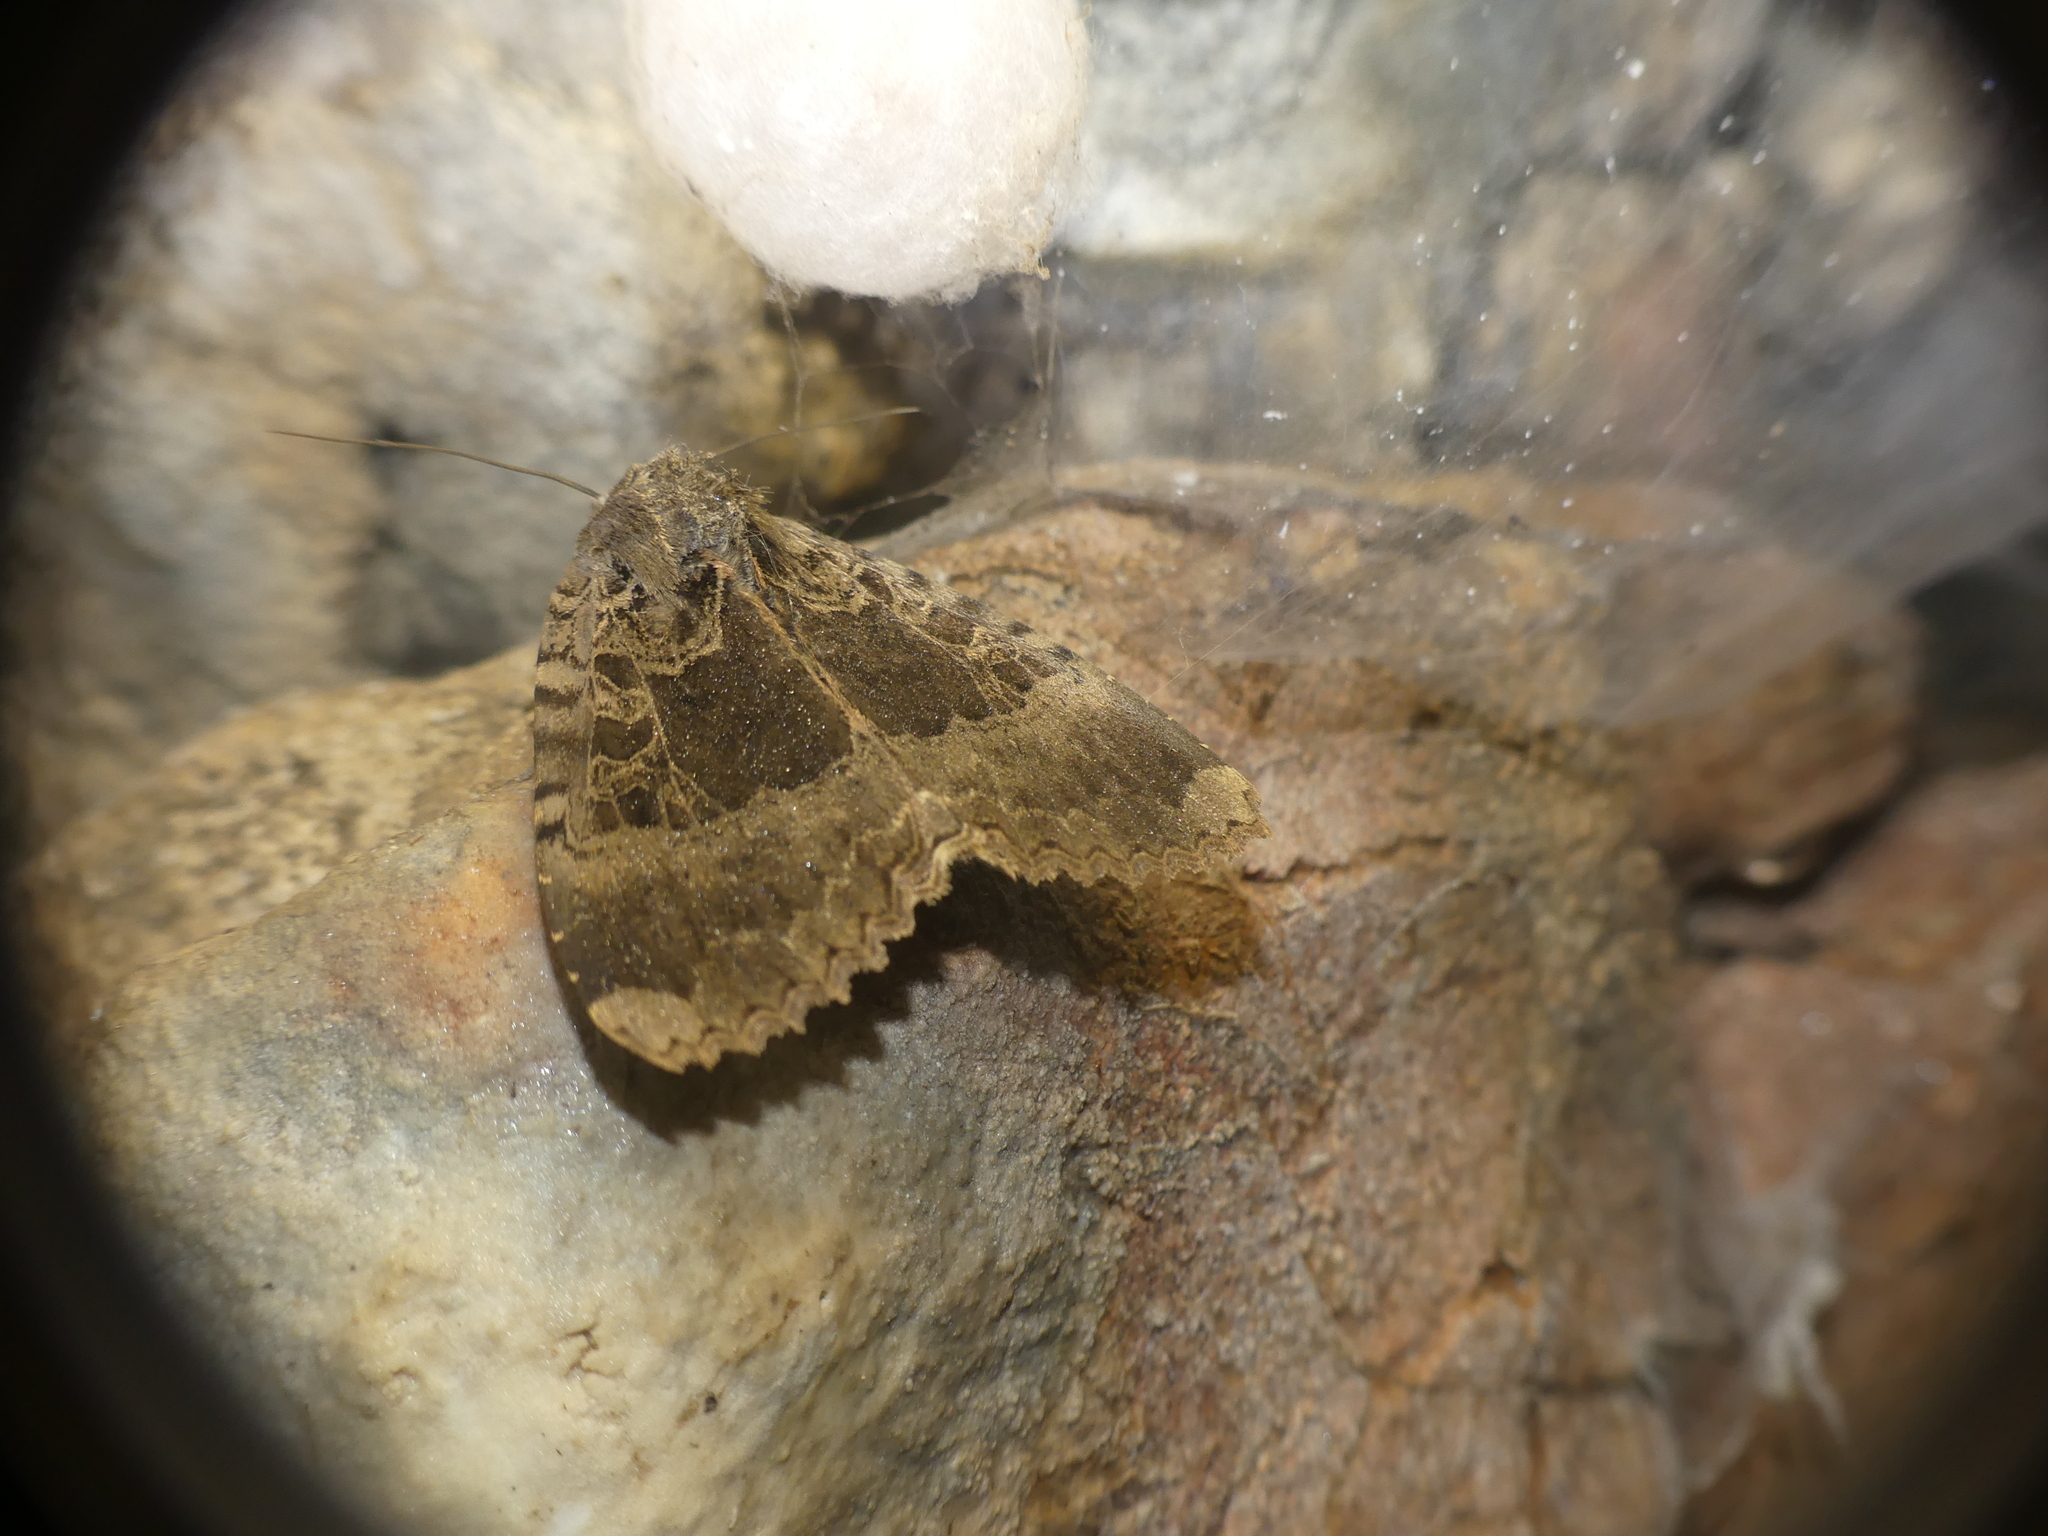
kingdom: Animalia
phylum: Arthropoda
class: Insecta
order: Lepidoptera
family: Noctuidae
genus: Mormo
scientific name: Mormo maura
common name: Old lady
